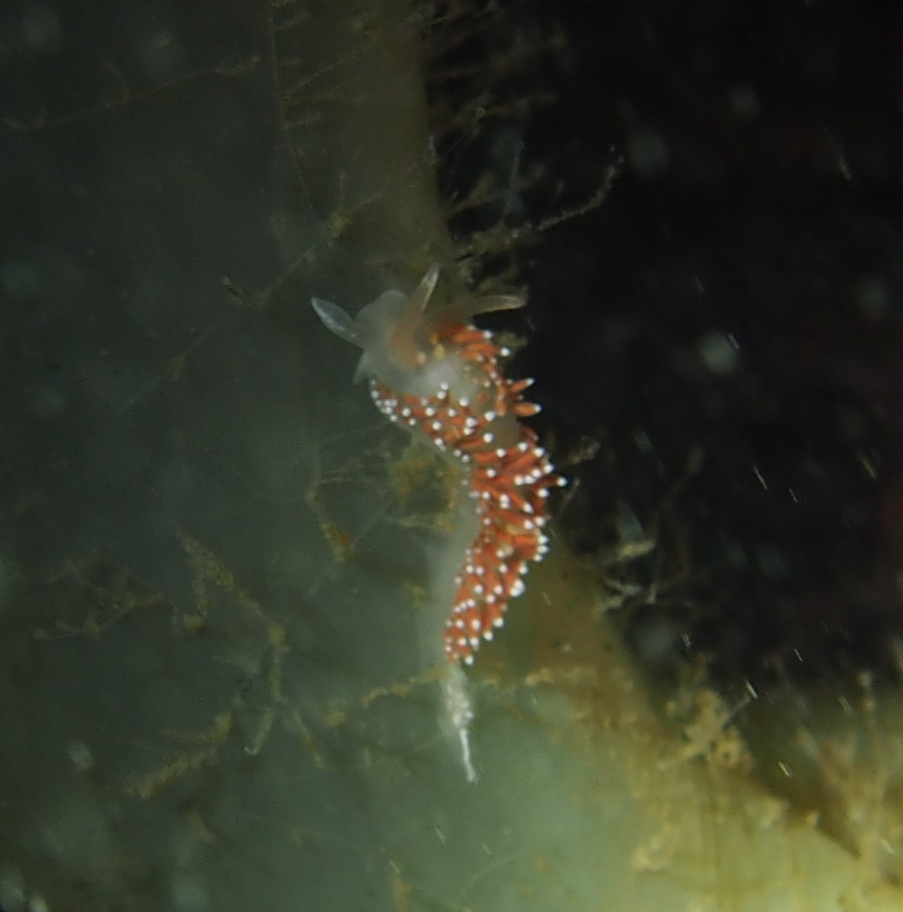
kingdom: Animalia
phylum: Mollusca
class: Gastropoda
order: Nudibranchia
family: Coryphellidae
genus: Coryphella
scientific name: Coryphella verrucosa
